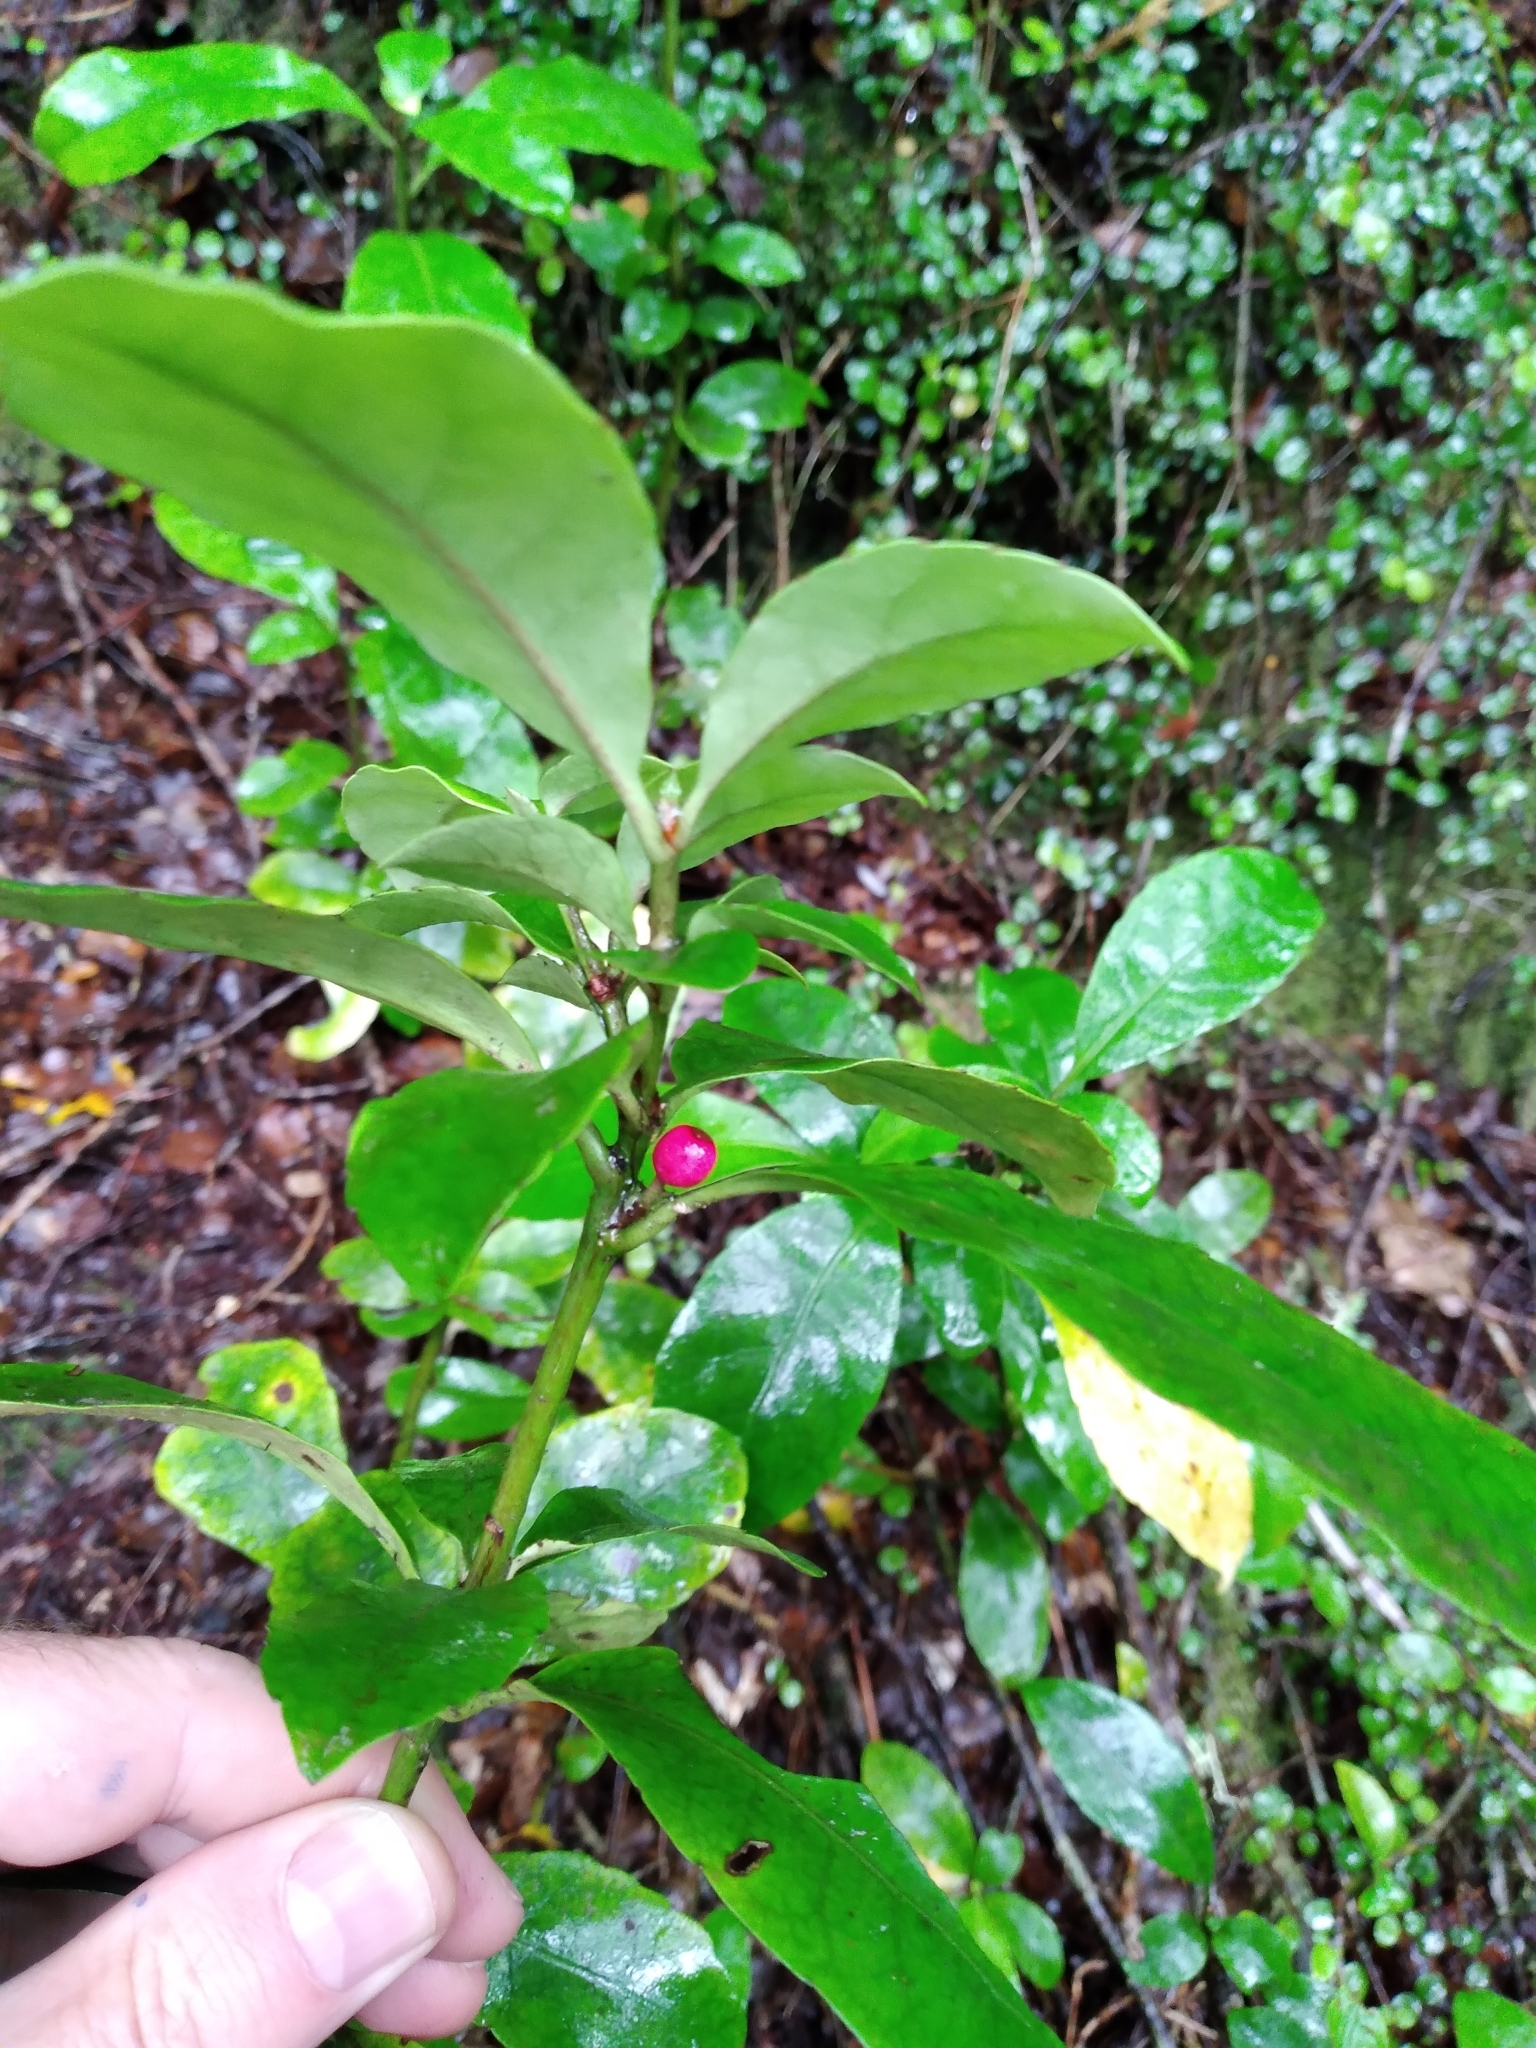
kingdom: Plantae
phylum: Tracheophyta
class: Magnoliopsida
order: Asterales
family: Alseuosmiaceae
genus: Alseuosmia
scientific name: Alseuosmia macrophylla
